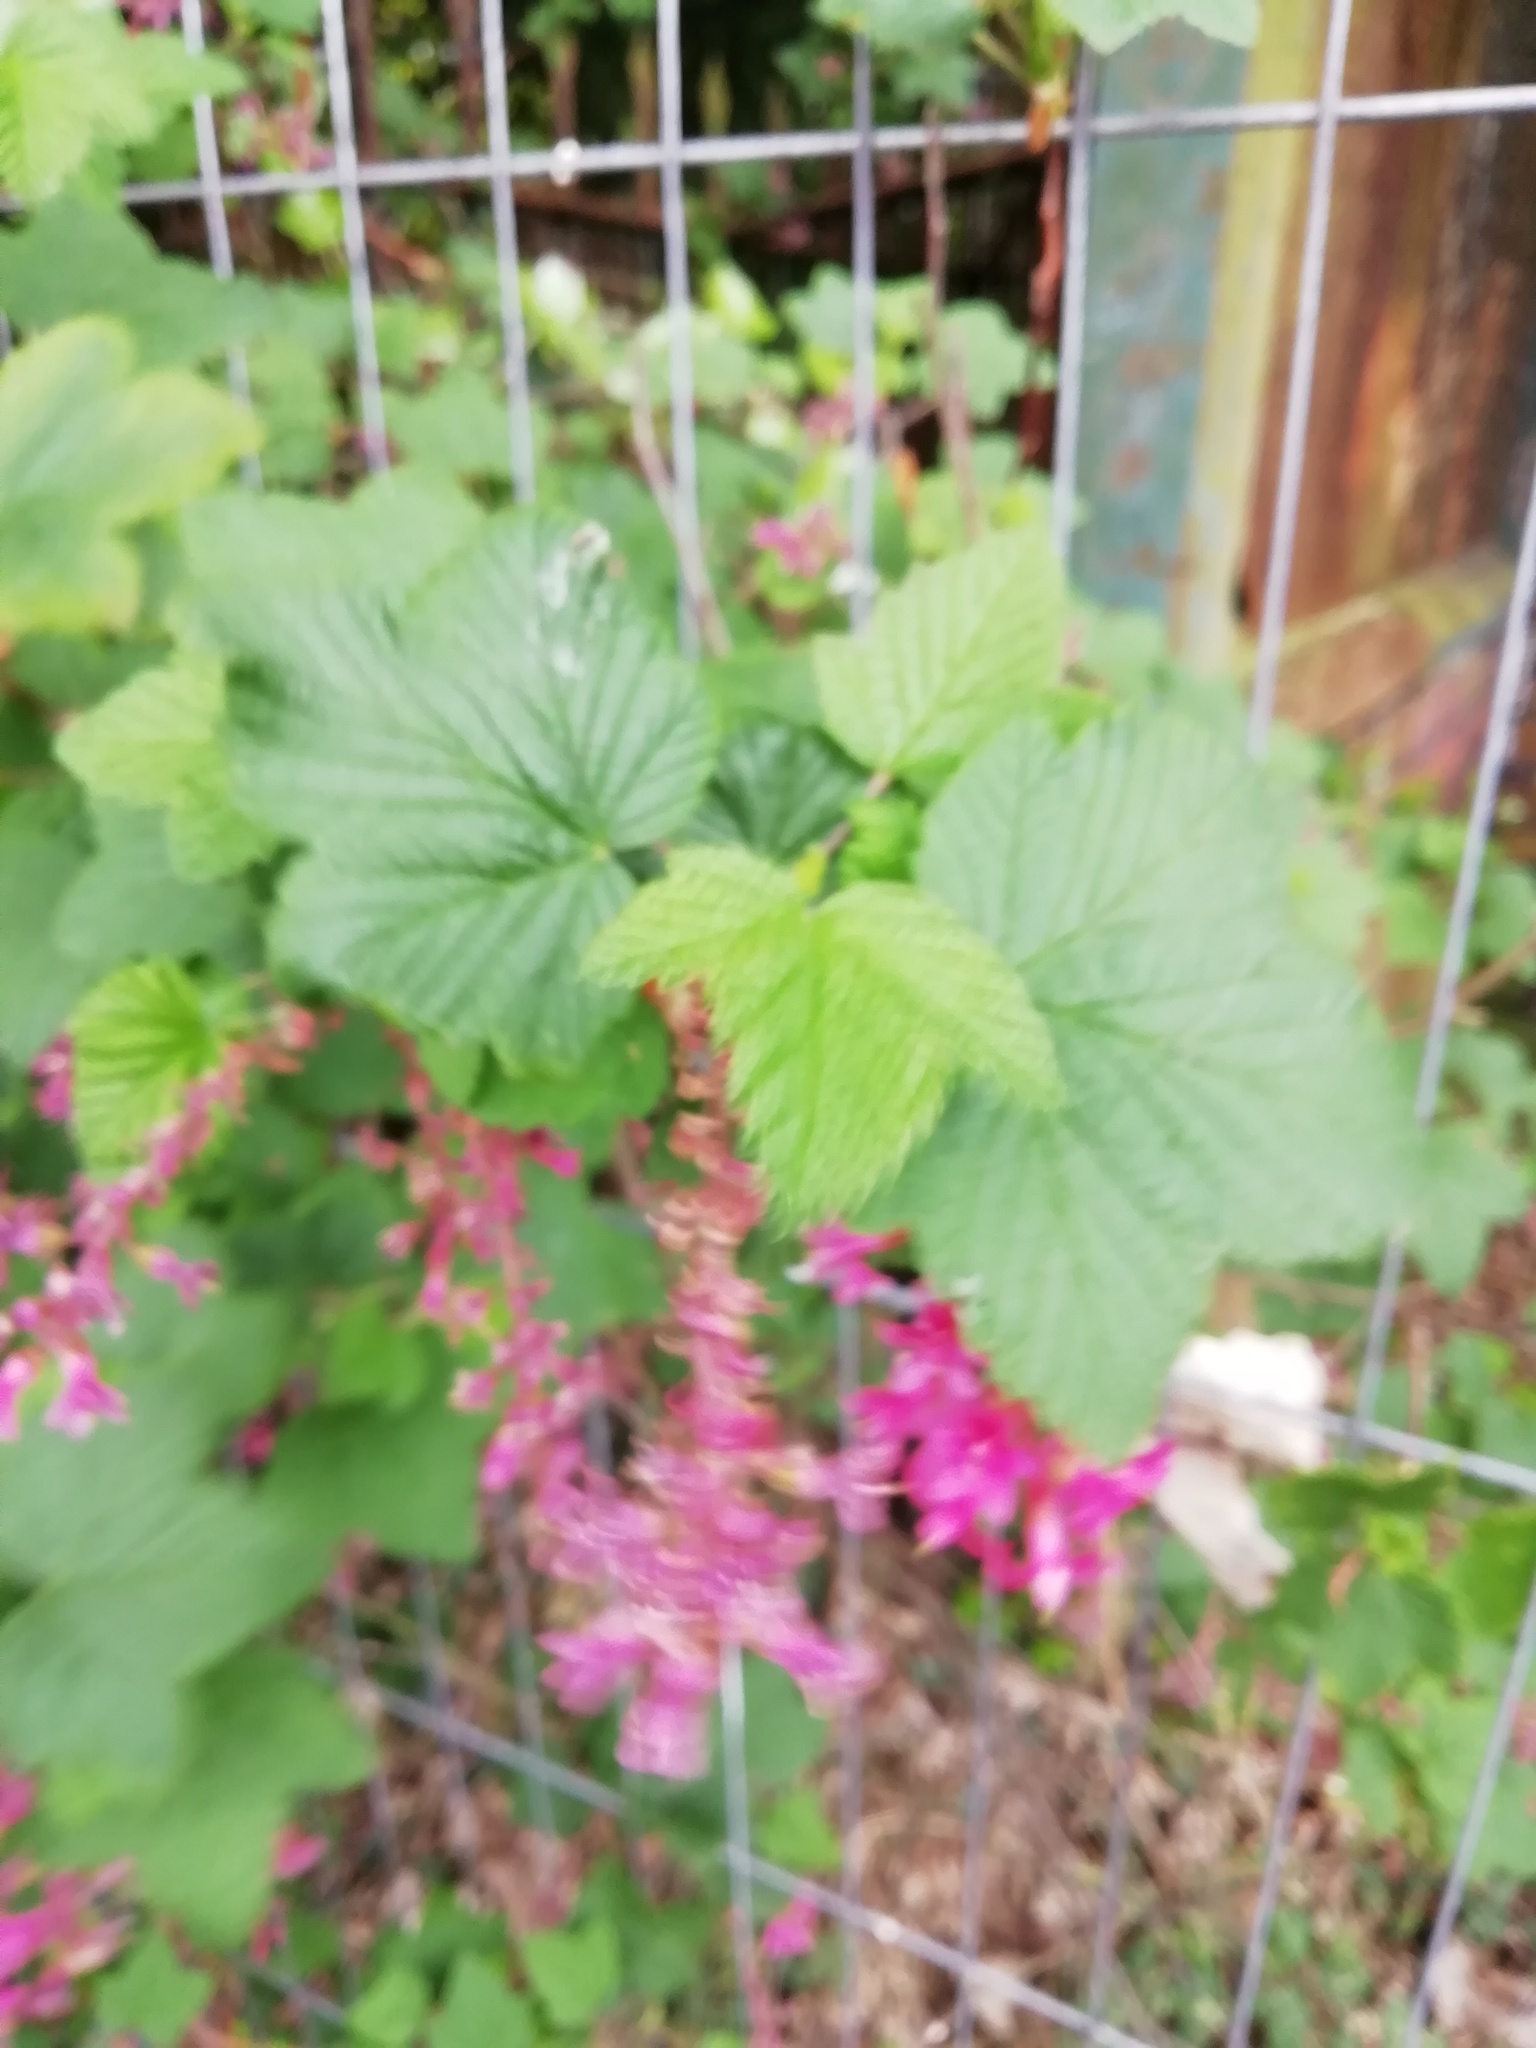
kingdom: Plantae
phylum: Tracheophyta
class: Magnoliopsida
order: Saxifragales
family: Grossulariaceae
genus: Ribes
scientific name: Ribes sanguineum
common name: Flowering currant
